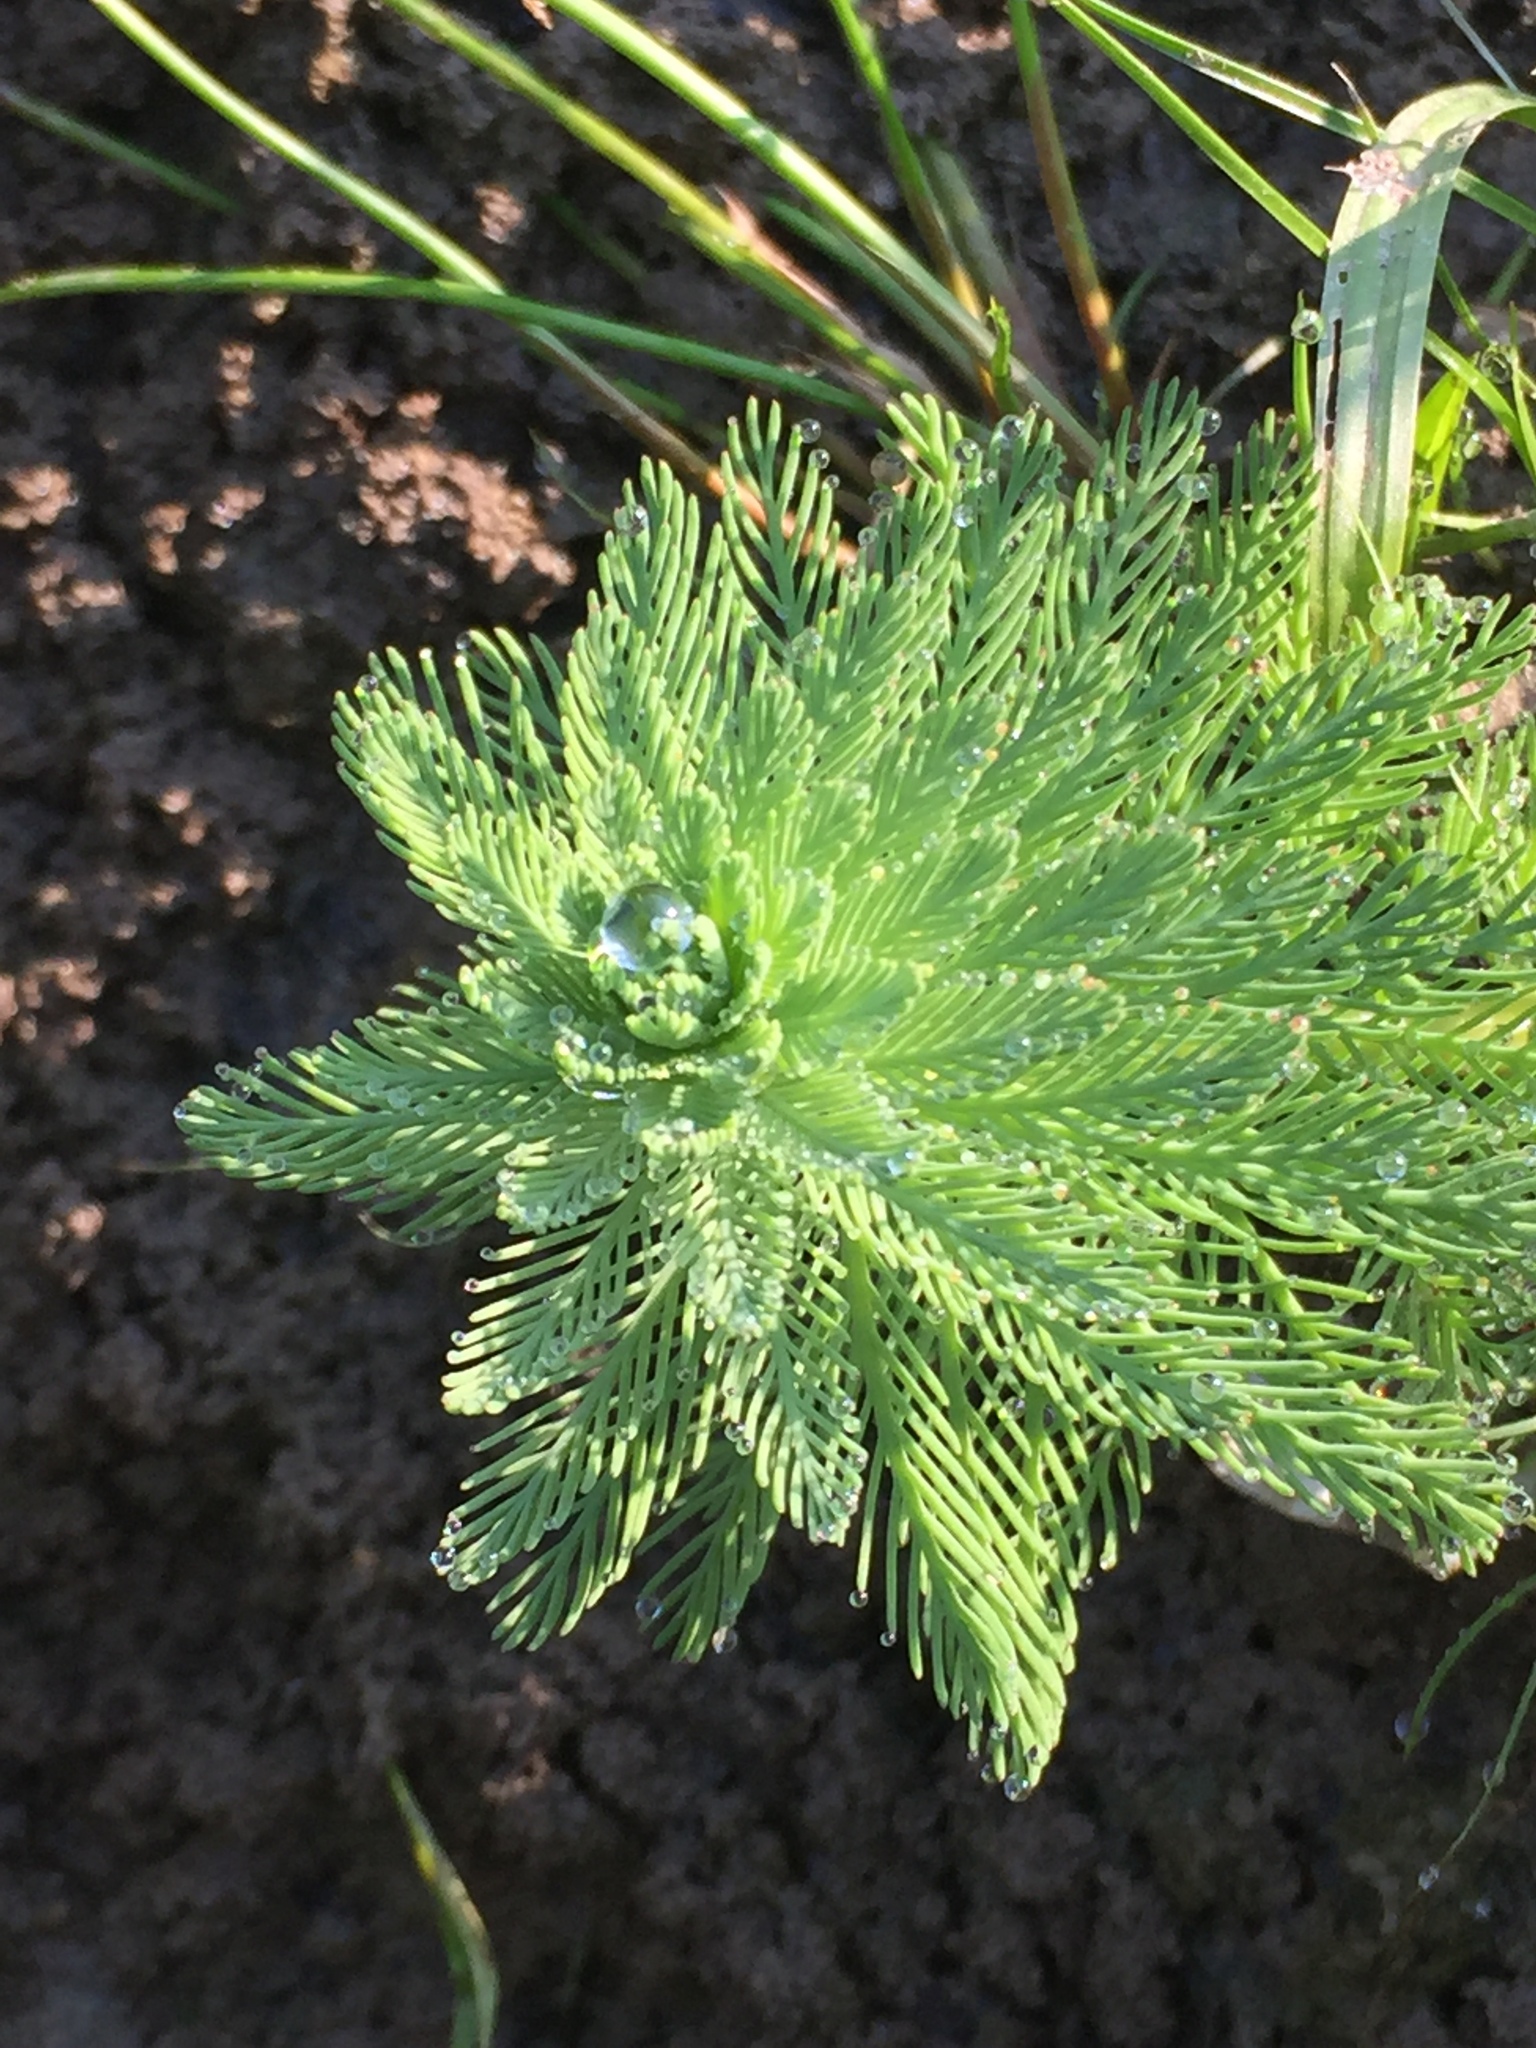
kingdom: Plantae
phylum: Tracheophyta
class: Magnoliopsida
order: Saxifragales
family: Haloragaceae
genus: Myriophyllum
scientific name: Myriophyllum aquaticum
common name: Parrot's feather
